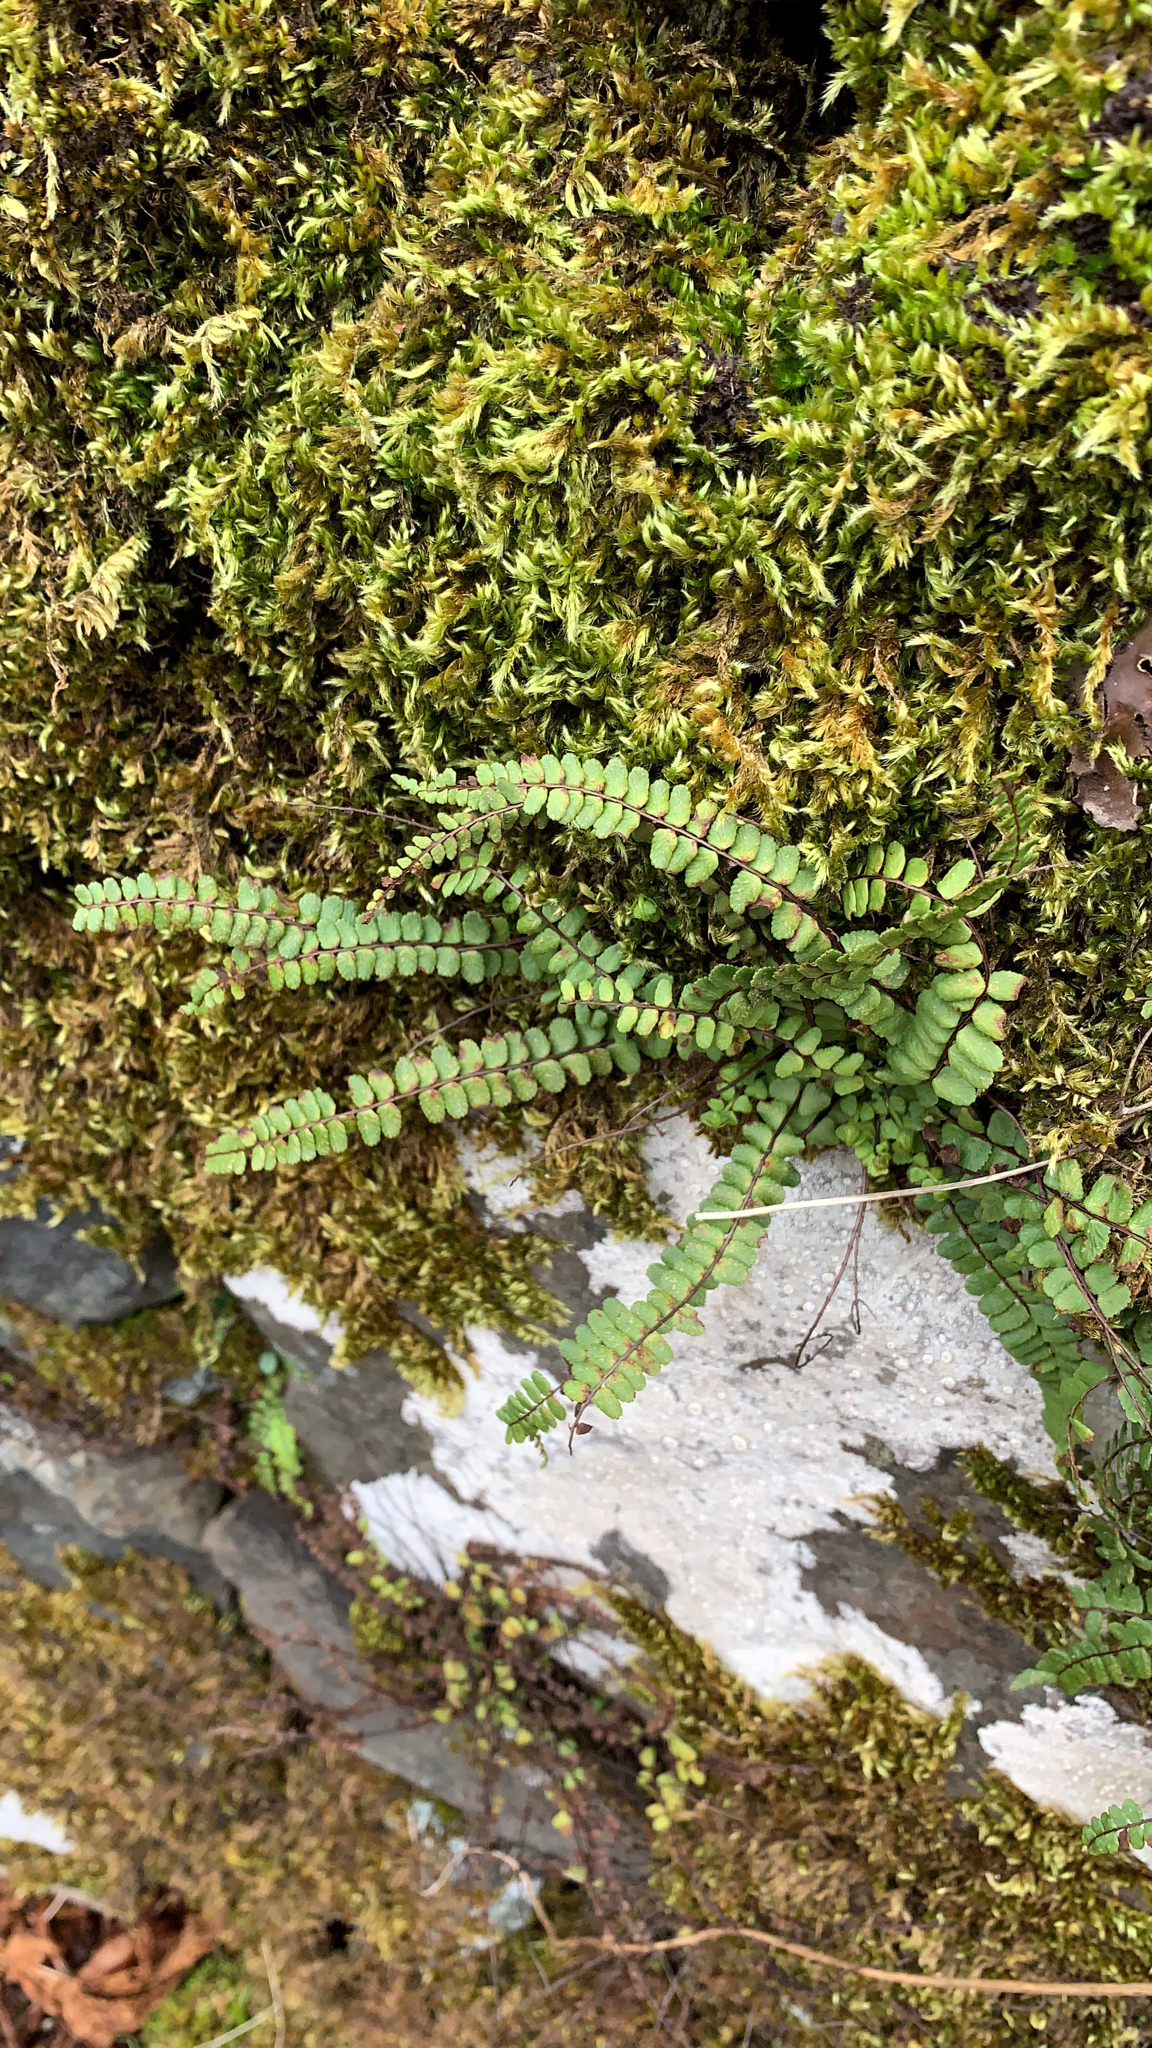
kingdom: Plantae
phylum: Tracheophyta
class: Polypodiopsida
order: Polypodiales
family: Aspleniaceae
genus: Asplenium
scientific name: Asplenium trichomanes
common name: Maidenhair spleenwort
